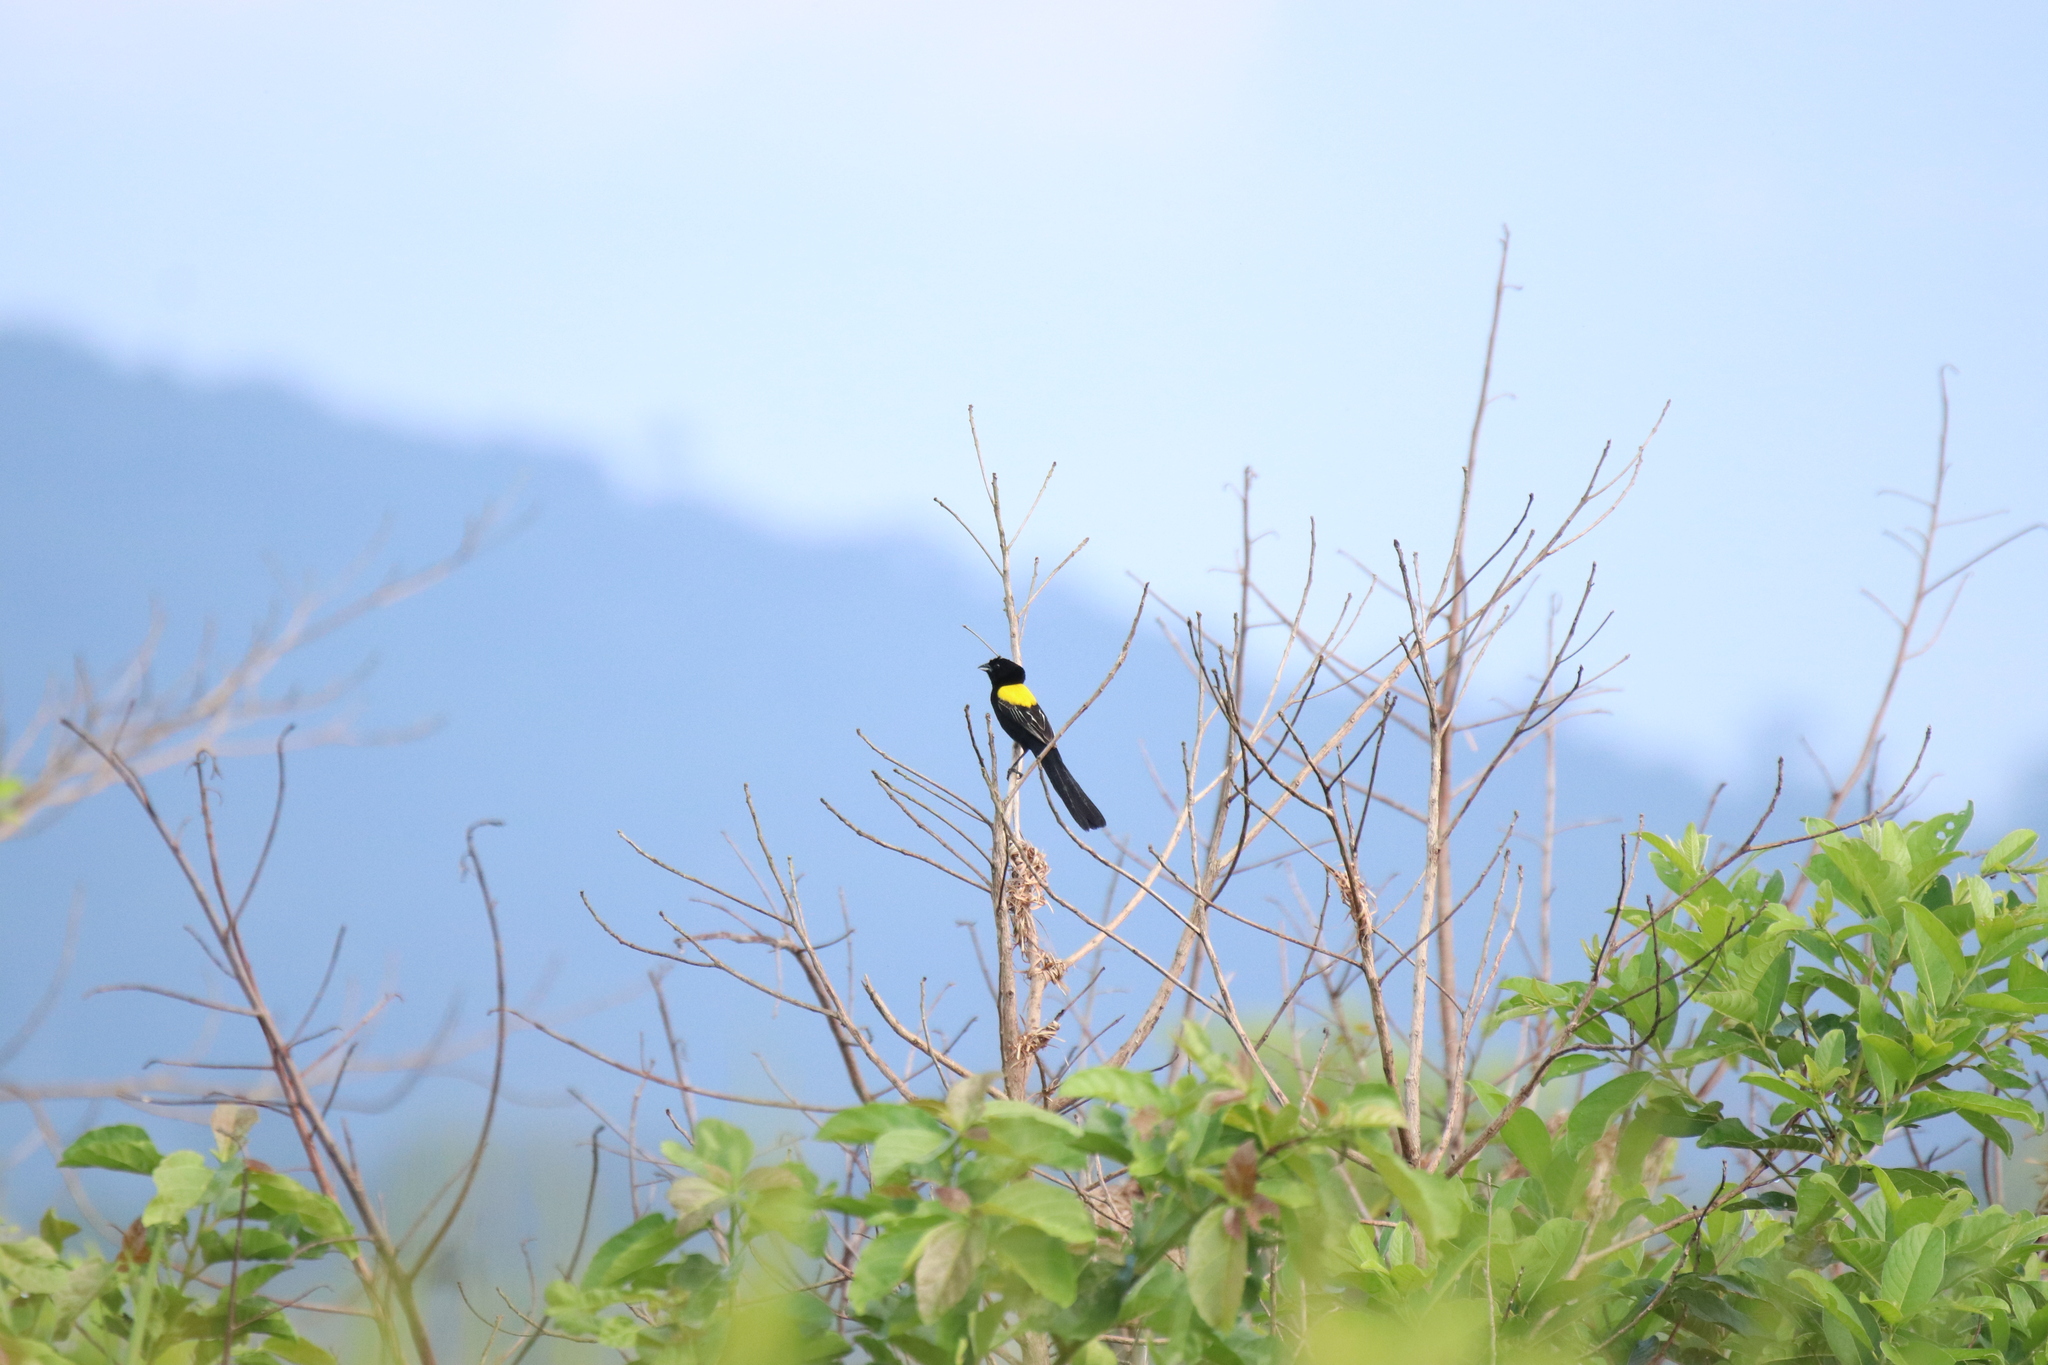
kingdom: Animalia
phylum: Chordata
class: Aves
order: Passeriformes
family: Ploceidae
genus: Euplectes
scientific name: Euplectes macroura
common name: Yellow-mantled widowbird
